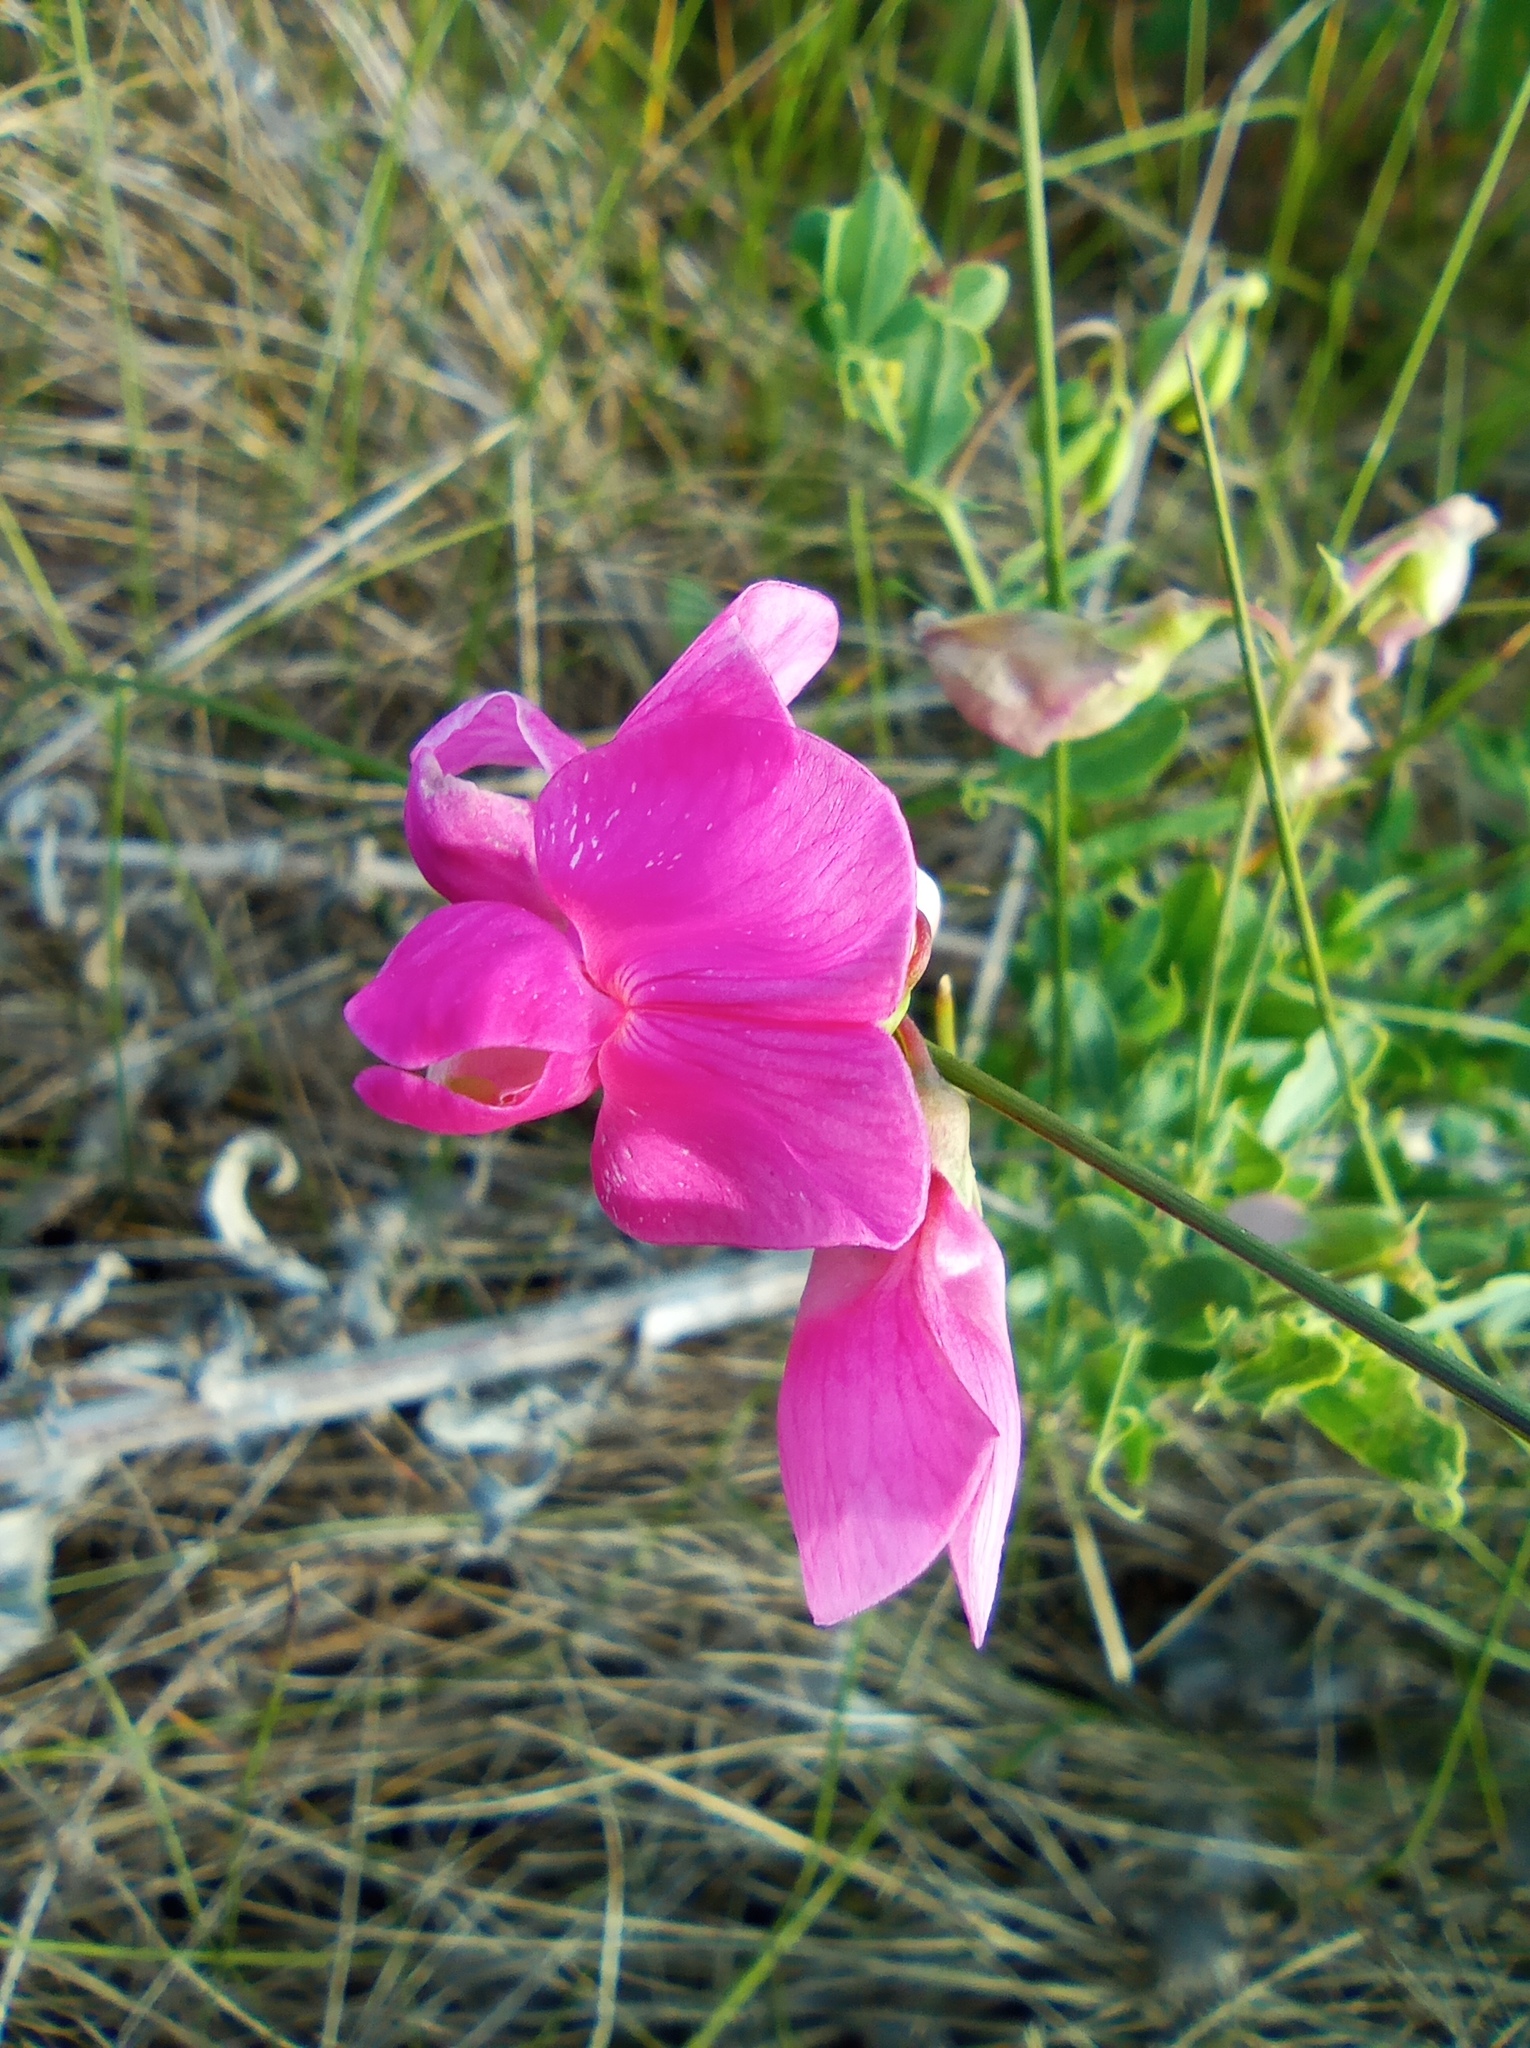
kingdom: Plantae
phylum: Tracheophyta
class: Magnoliopsida
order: Fabales
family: Fabaceae
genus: Lathyrus
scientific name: Lathyrus tuberosus
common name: Tuberous pea
